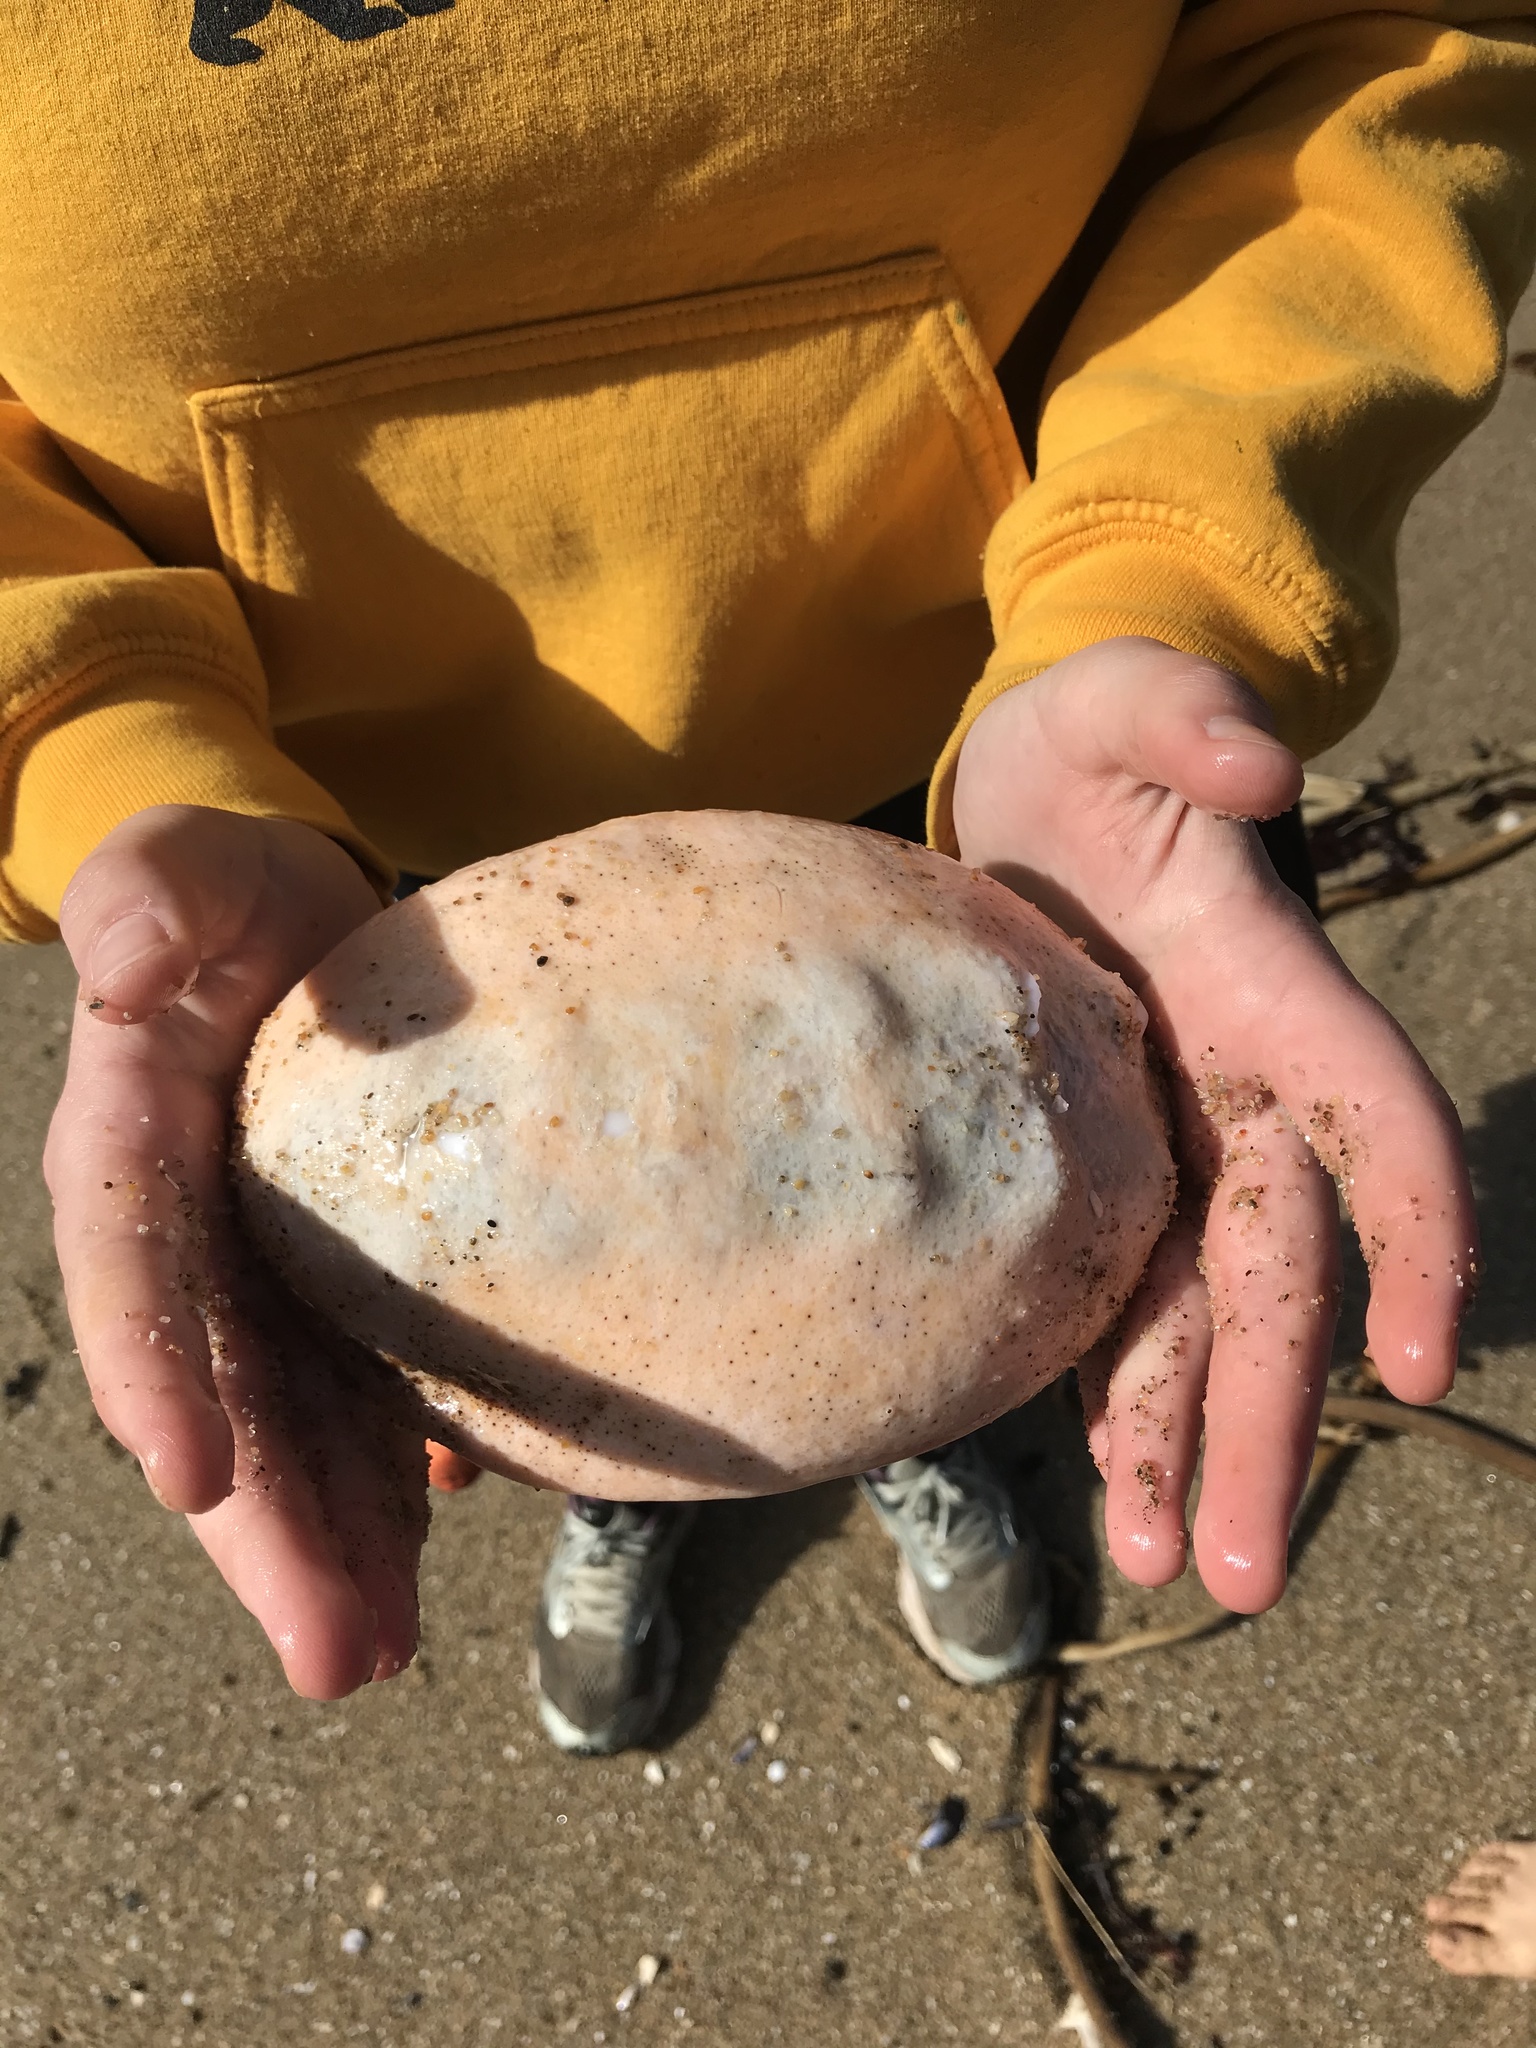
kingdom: Animalia
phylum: Mollusca
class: Polyplacophora
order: Chitonida
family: Acanthochitonidae
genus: Cryptochiton
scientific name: Cryptochiton stelleri
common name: Giant pacific chiton
